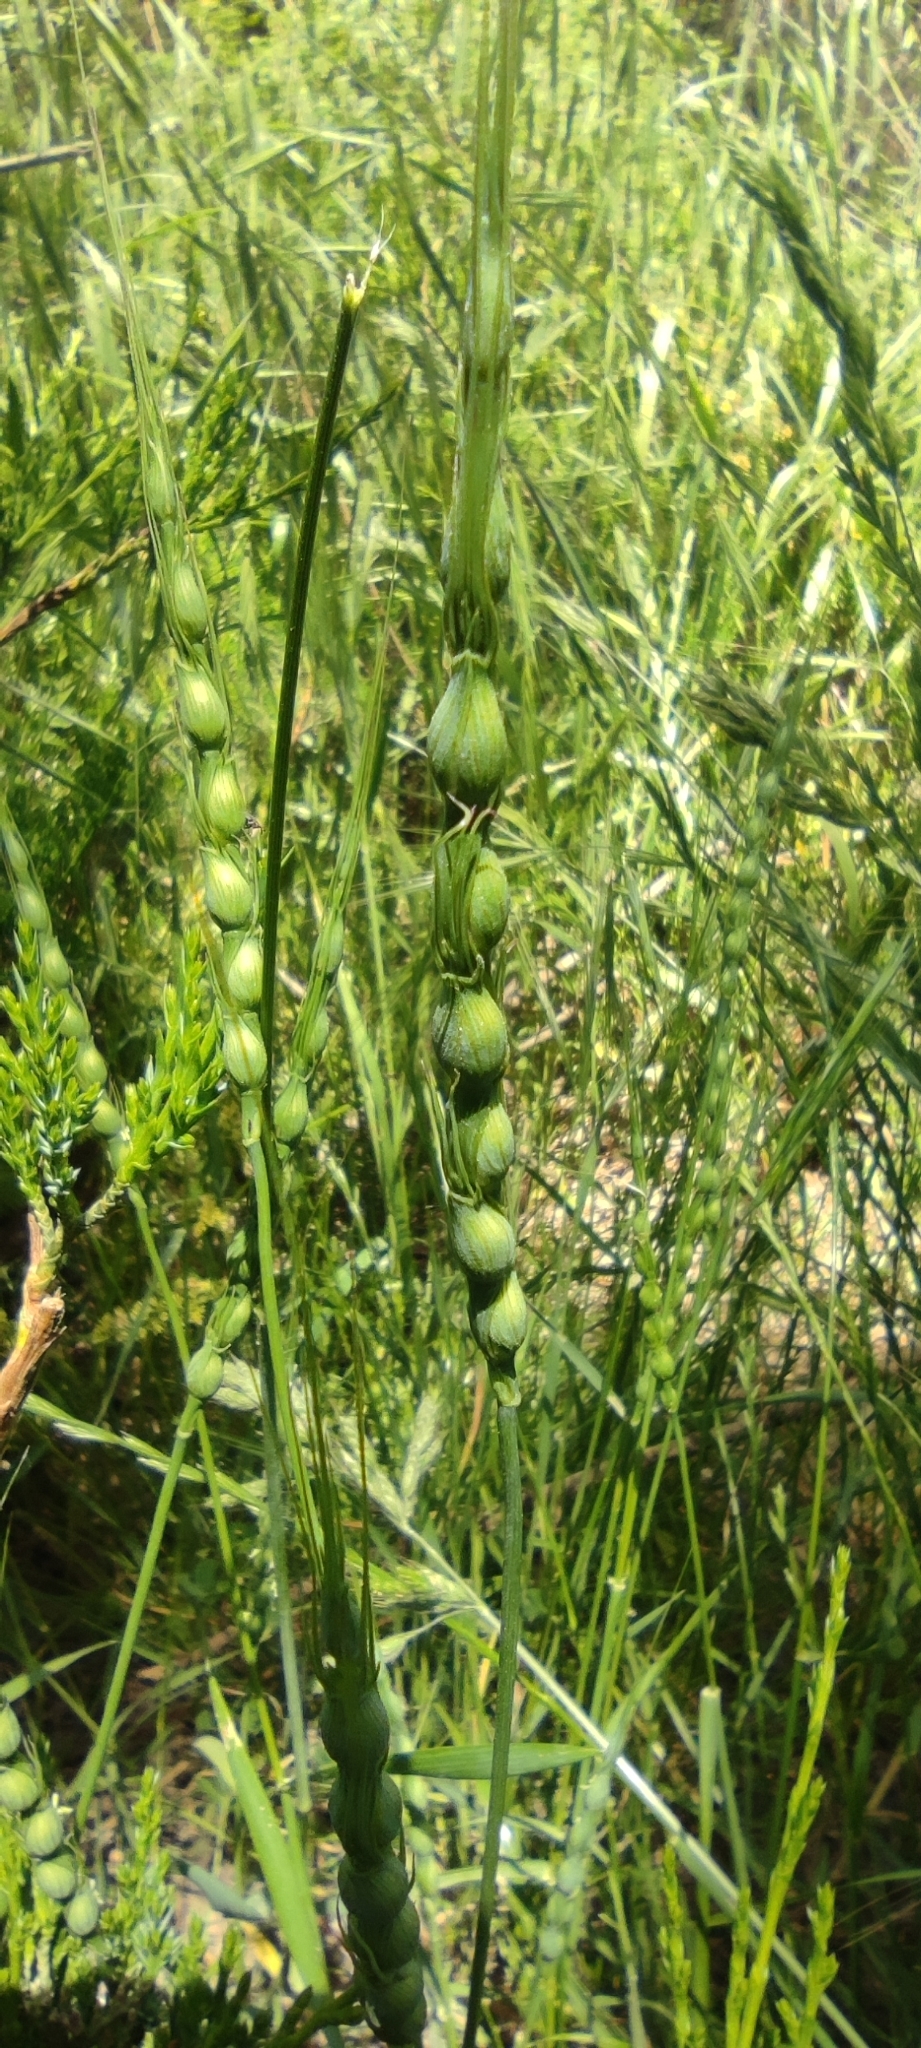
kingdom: Plantae
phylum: Tracheophyta
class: Liliopsida
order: Poales
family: Poaceae
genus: Aegilops
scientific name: Aegilops ventricosa
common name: Swollen goat grass
